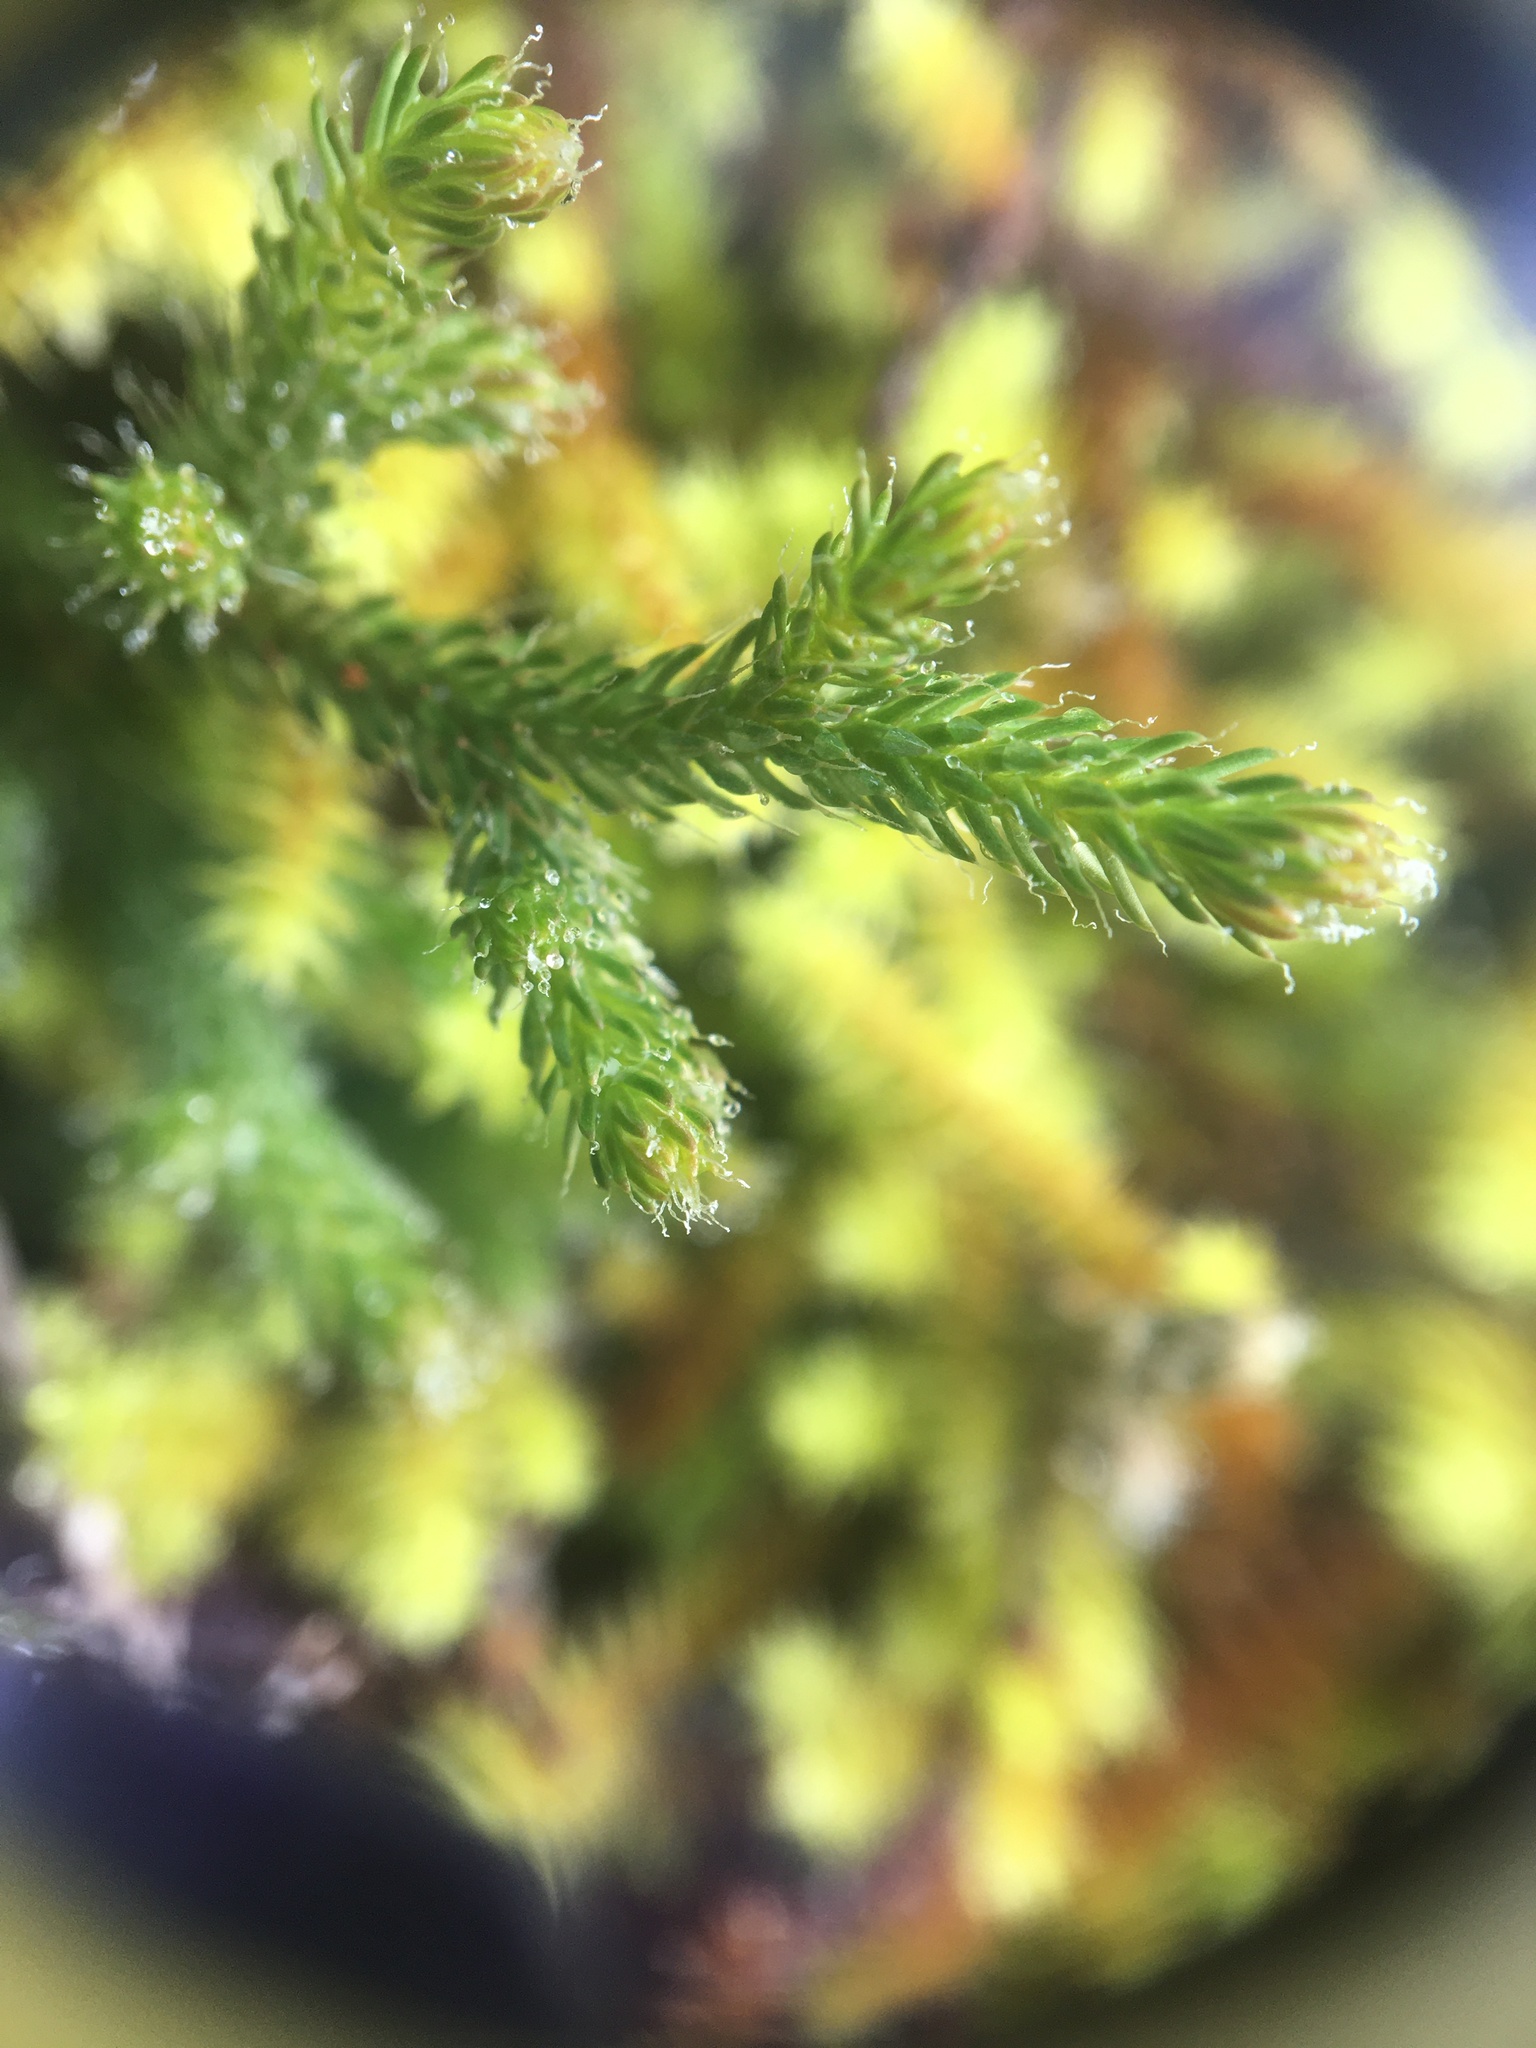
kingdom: Plantae
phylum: Tracheophyta
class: Lycopodiopsida
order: Selaginellales
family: Selaginellaceae
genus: Selaginella
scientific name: Selaginella tortipila
